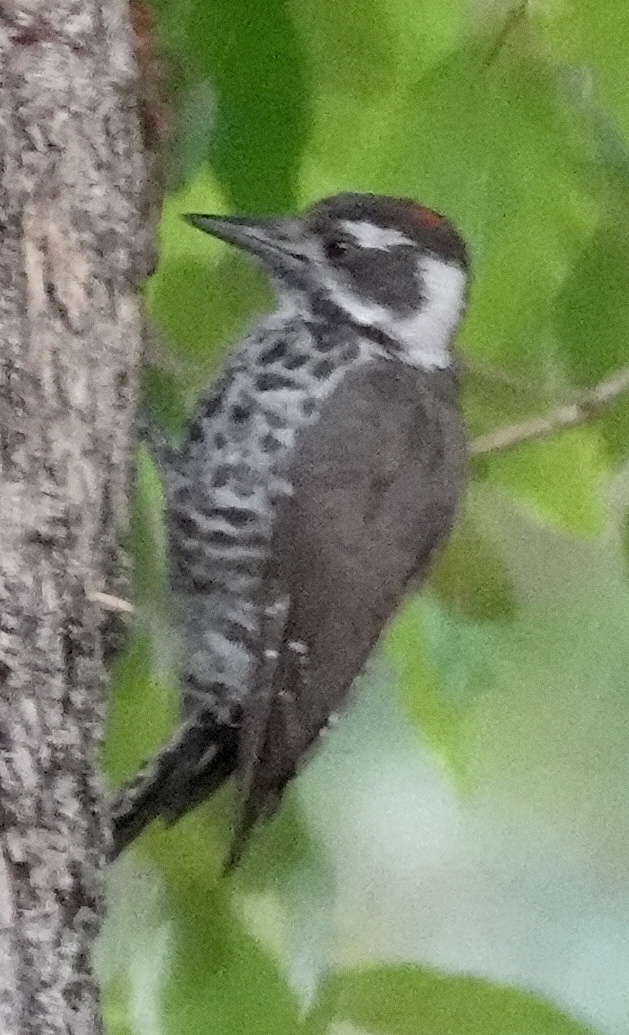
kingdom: Animalia
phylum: Chordata
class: Aves
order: Piciformes
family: Picidae
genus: Leuconotopicus
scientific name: Leuconotopicus arizonae
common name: Arizona woodpecker
